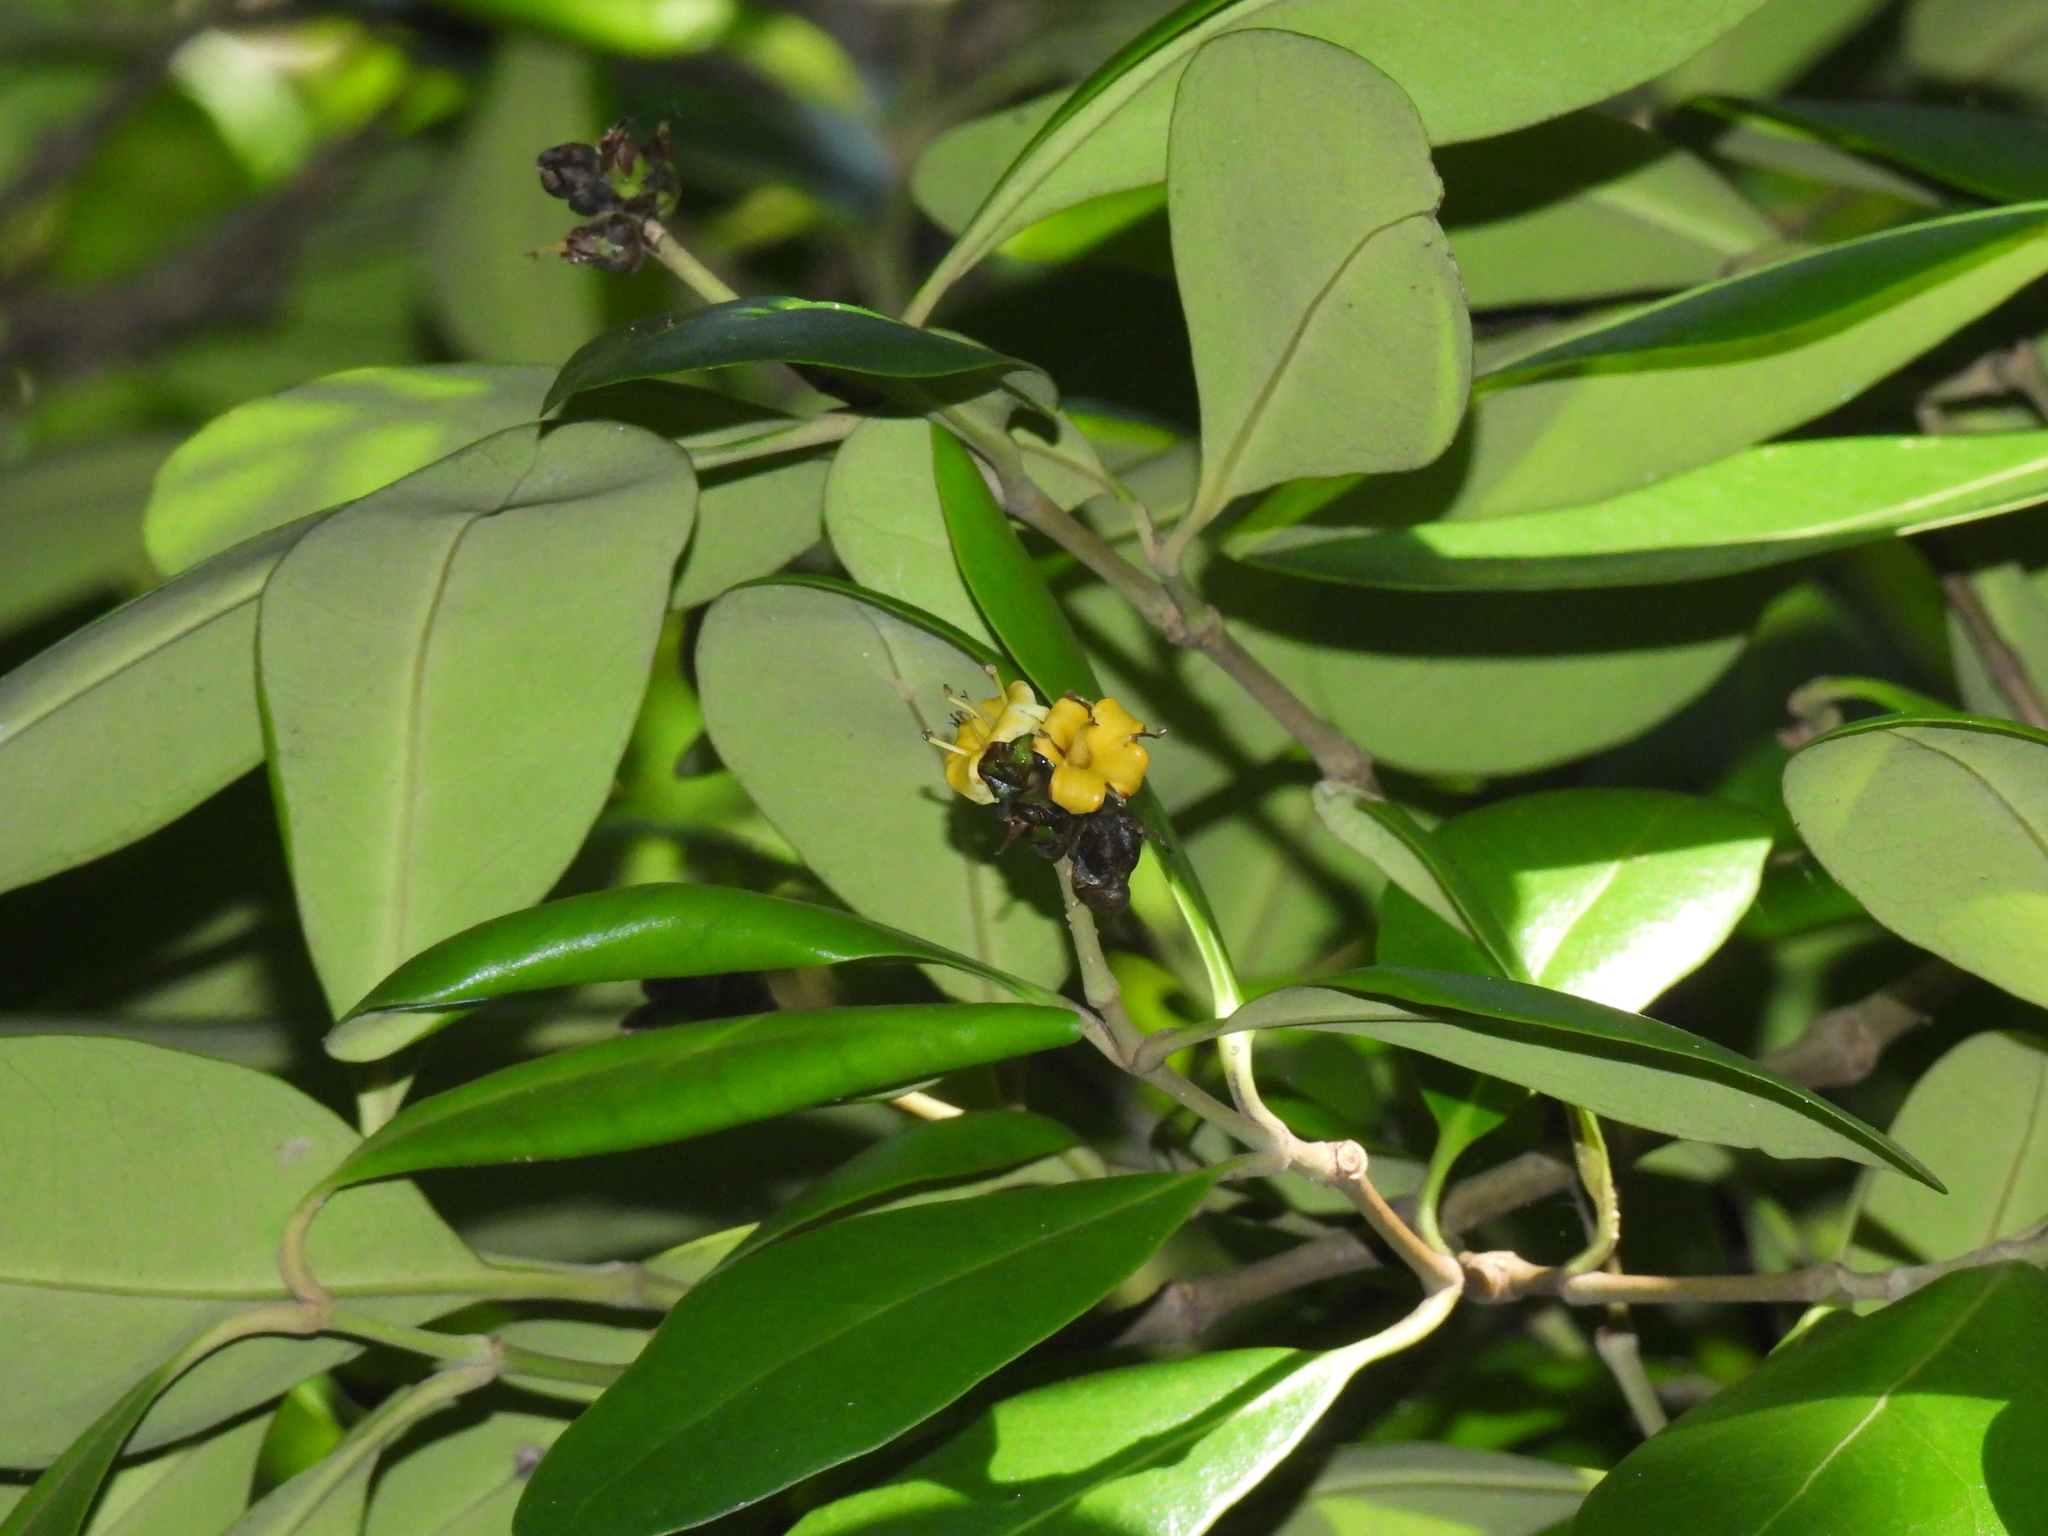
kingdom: Plantae
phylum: Tracheophyta
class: Magnoliopsida
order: Lamiales
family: Acanthaceae
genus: Avicennia
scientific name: Avicennia marina
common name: Gray mangrove
